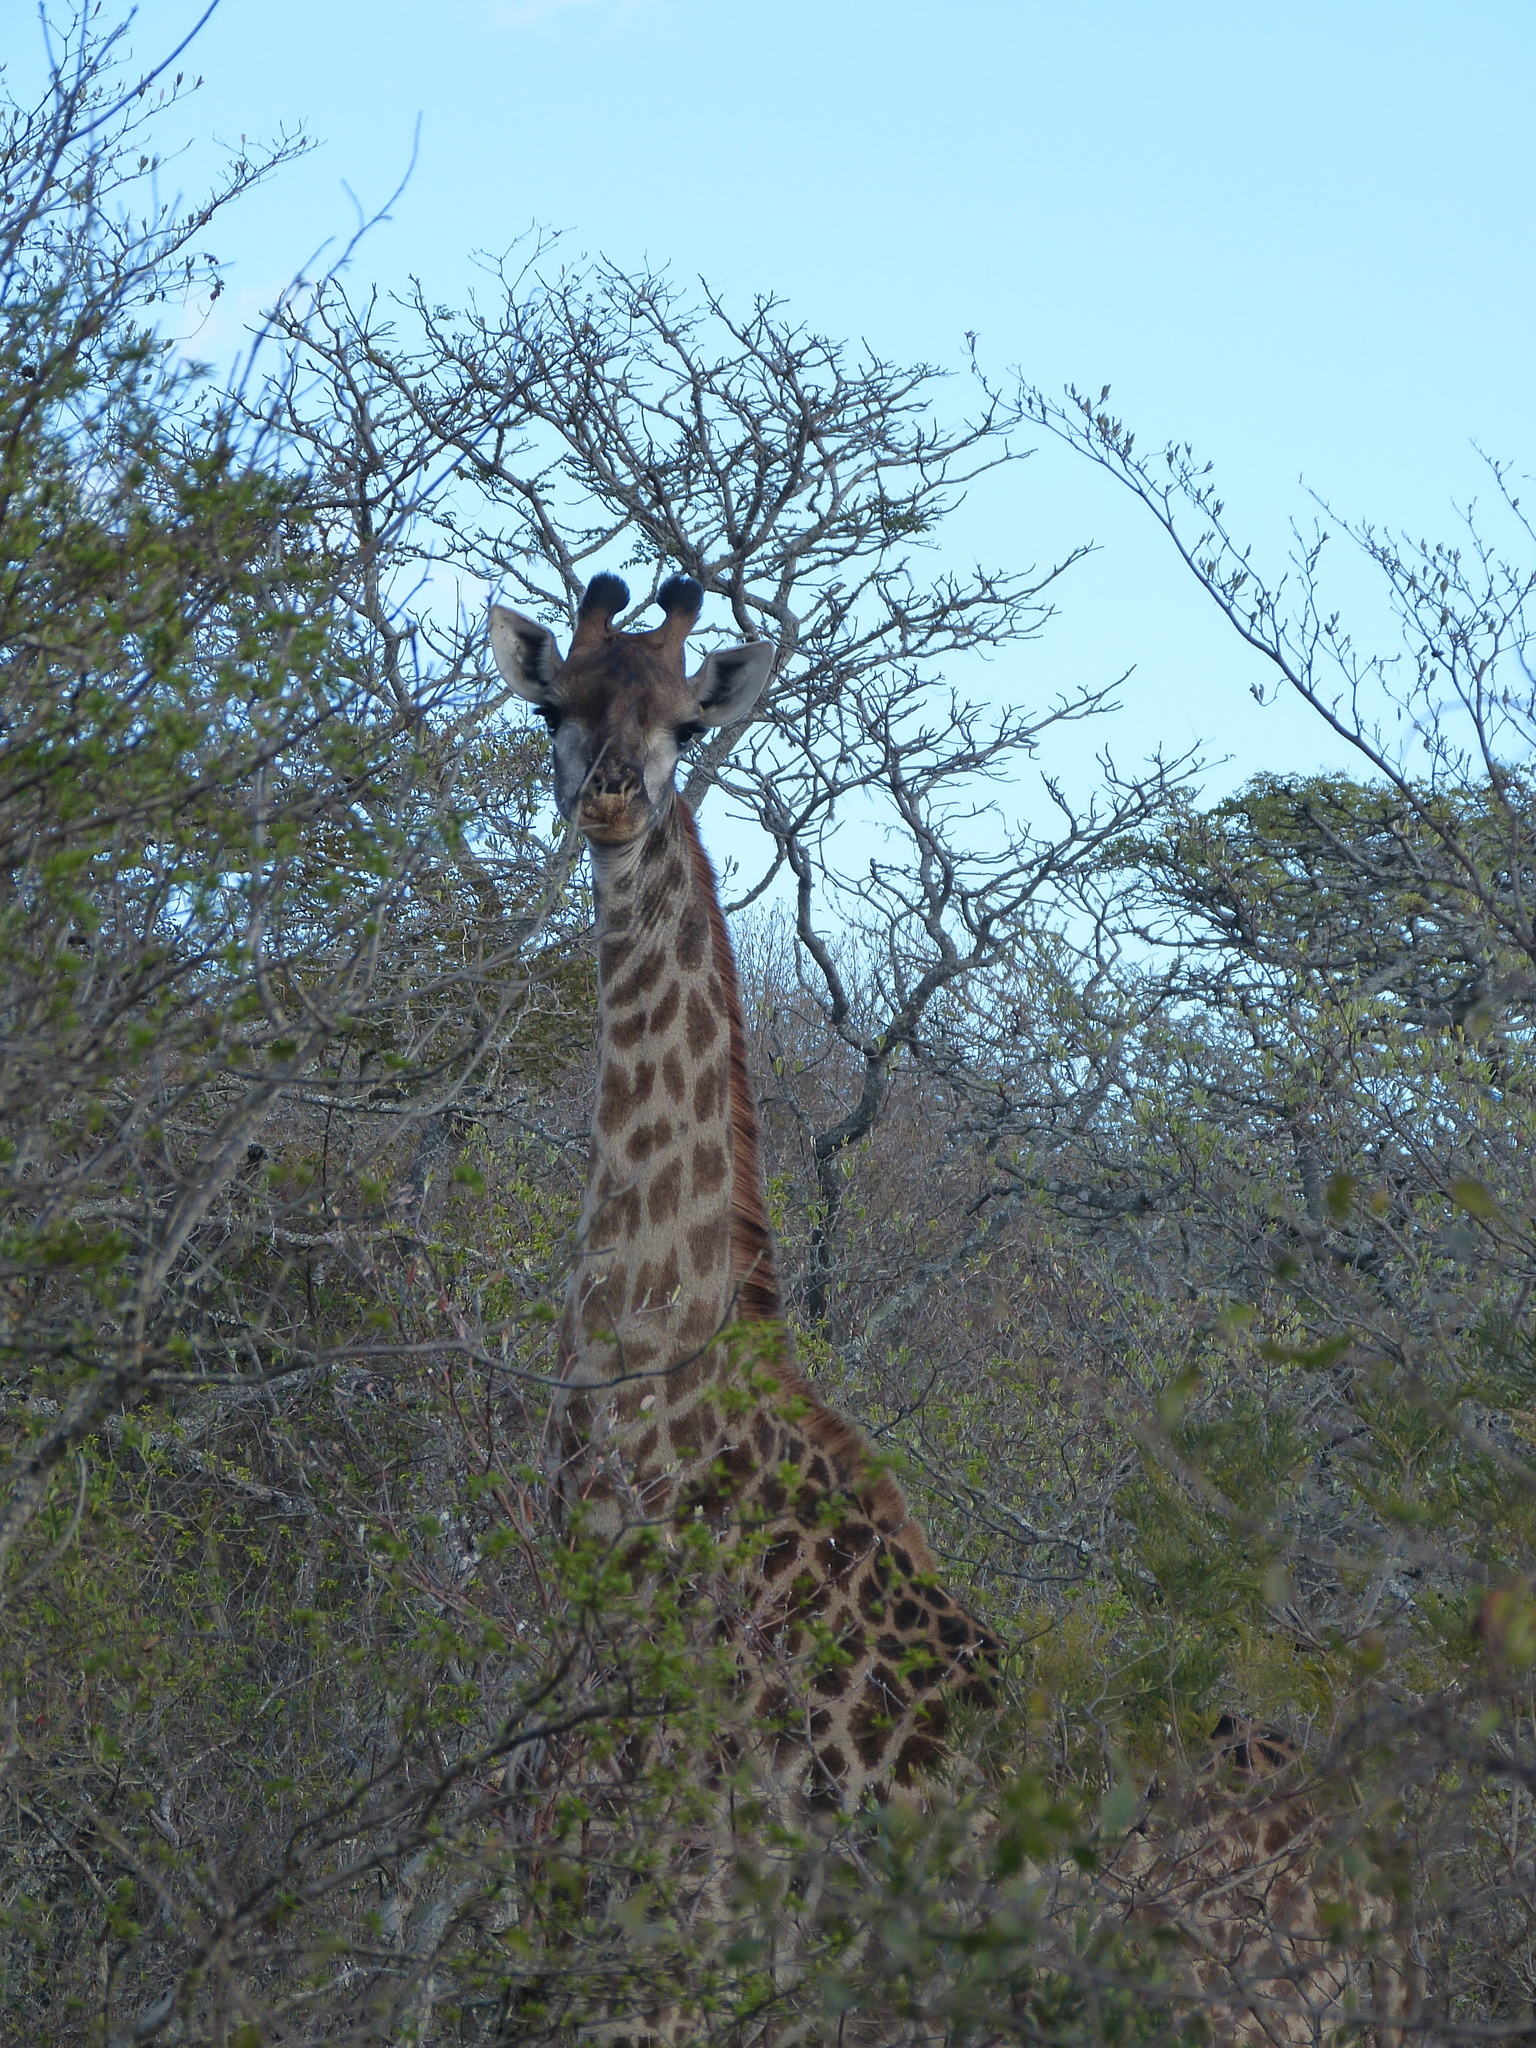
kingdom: Animalia
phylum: Chordata
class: Mammalia
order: Artiodactyla
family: Giraffidae
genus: Giraffa
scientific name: Giraffa giraffa
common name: Southern giraffe
